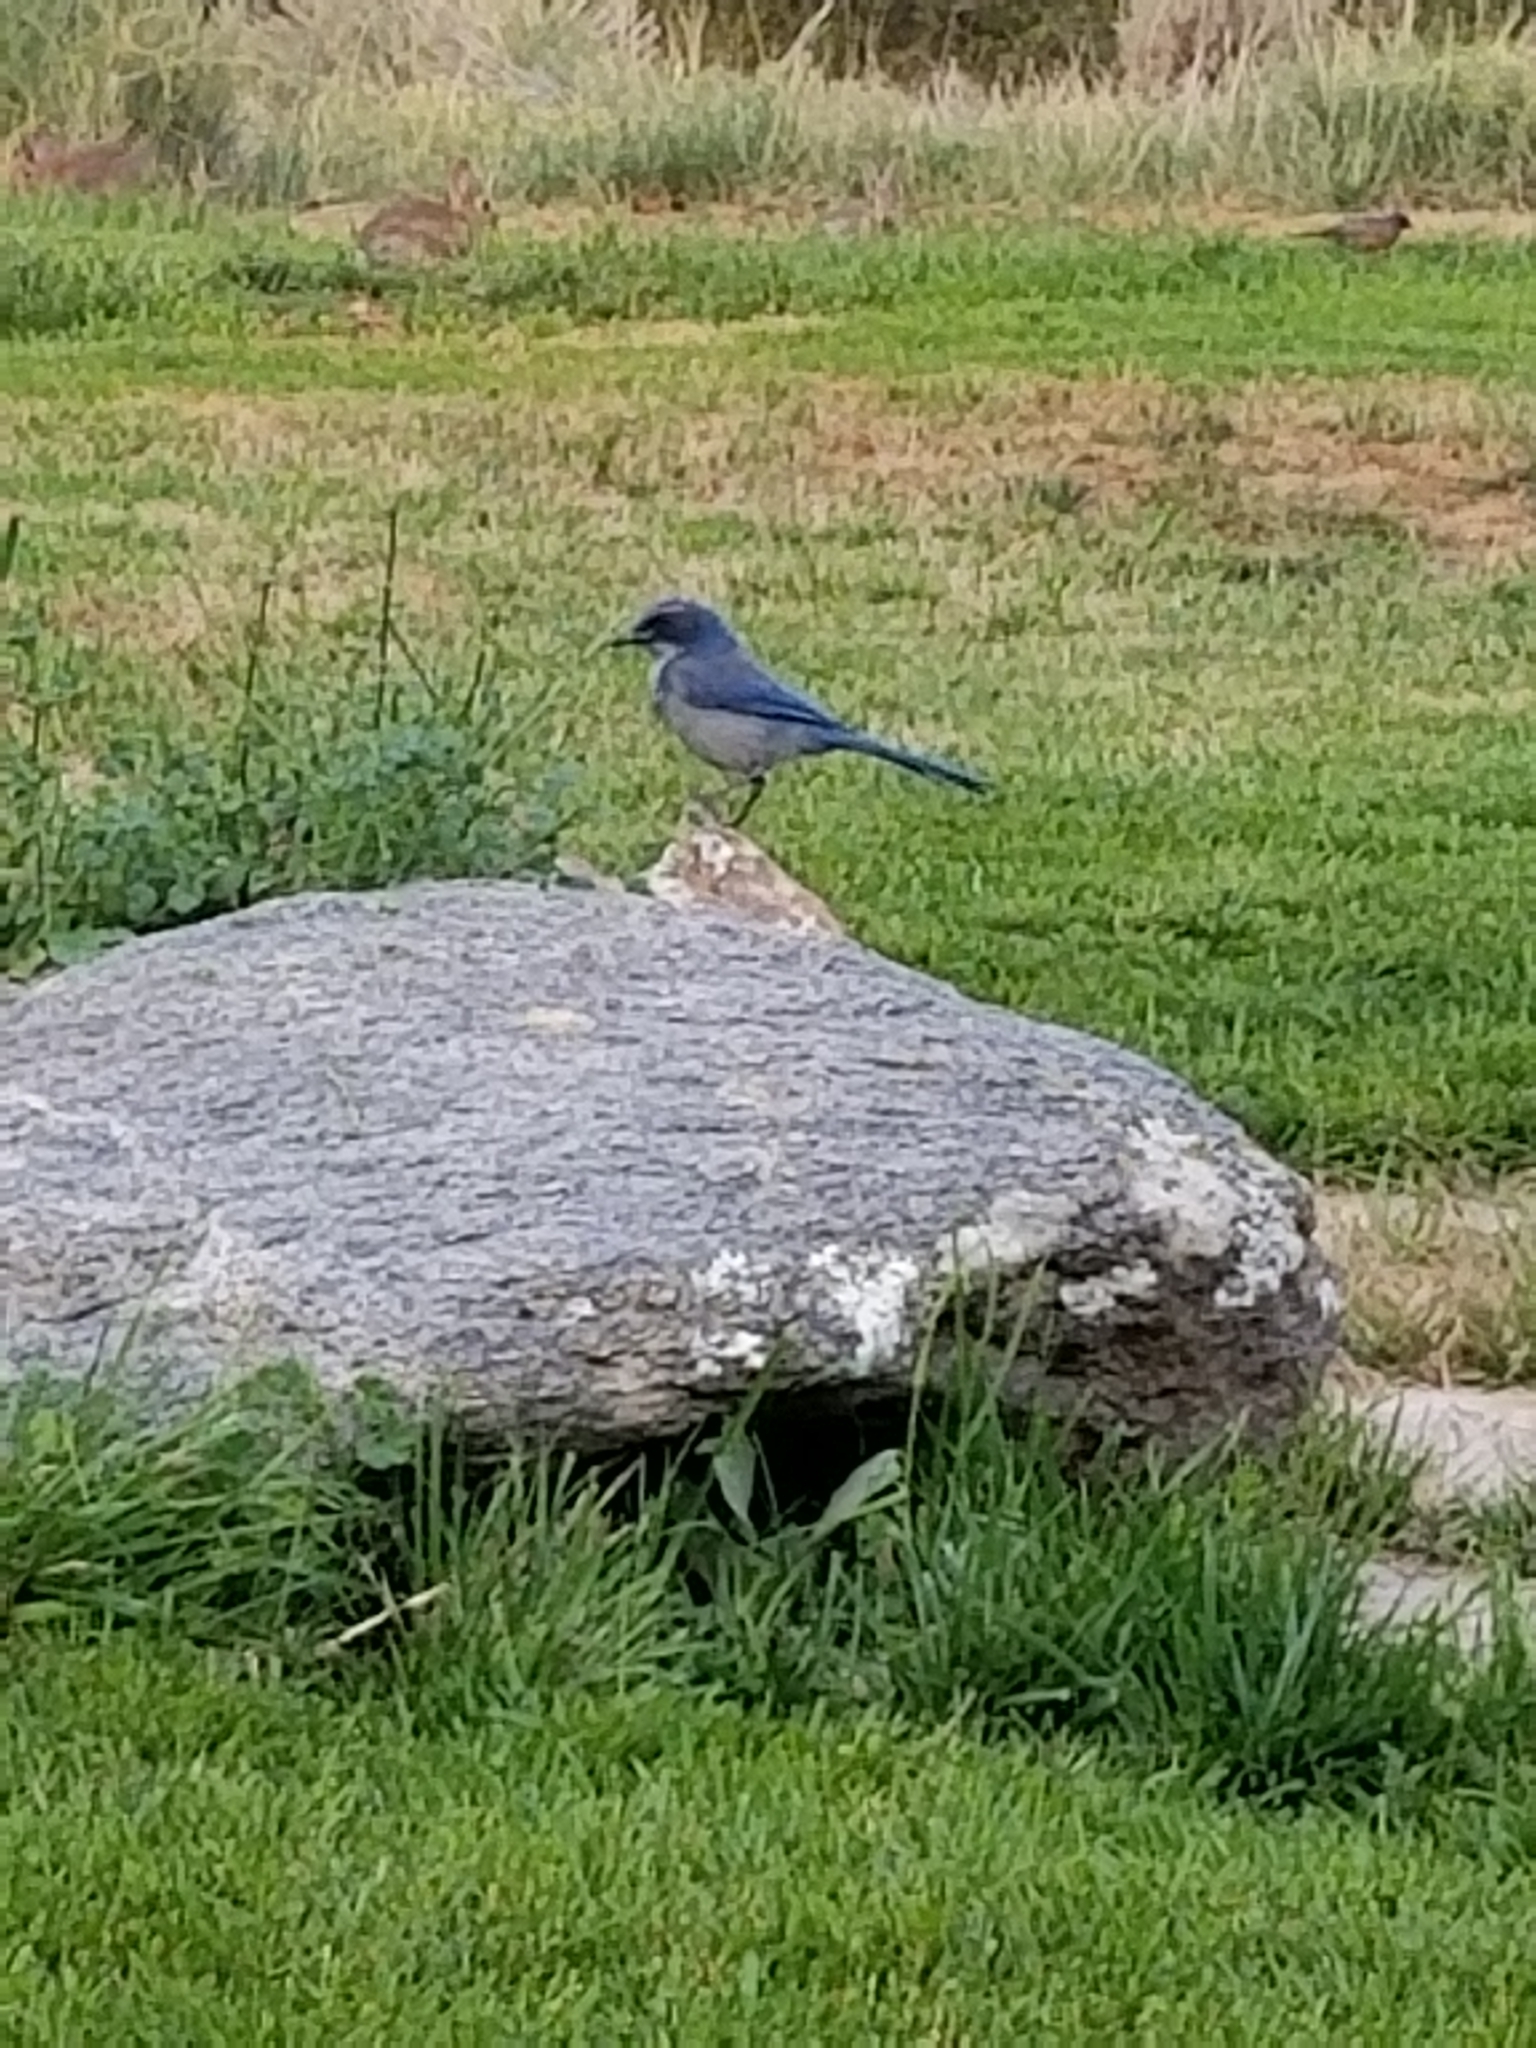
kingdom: Animalia
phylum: Chordata
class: Aves
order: Passeriformes
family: Corvidae
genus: Aphelocoma
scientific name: Aphelocoma woodhouseii
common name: Woodhouse's scrub-jay
